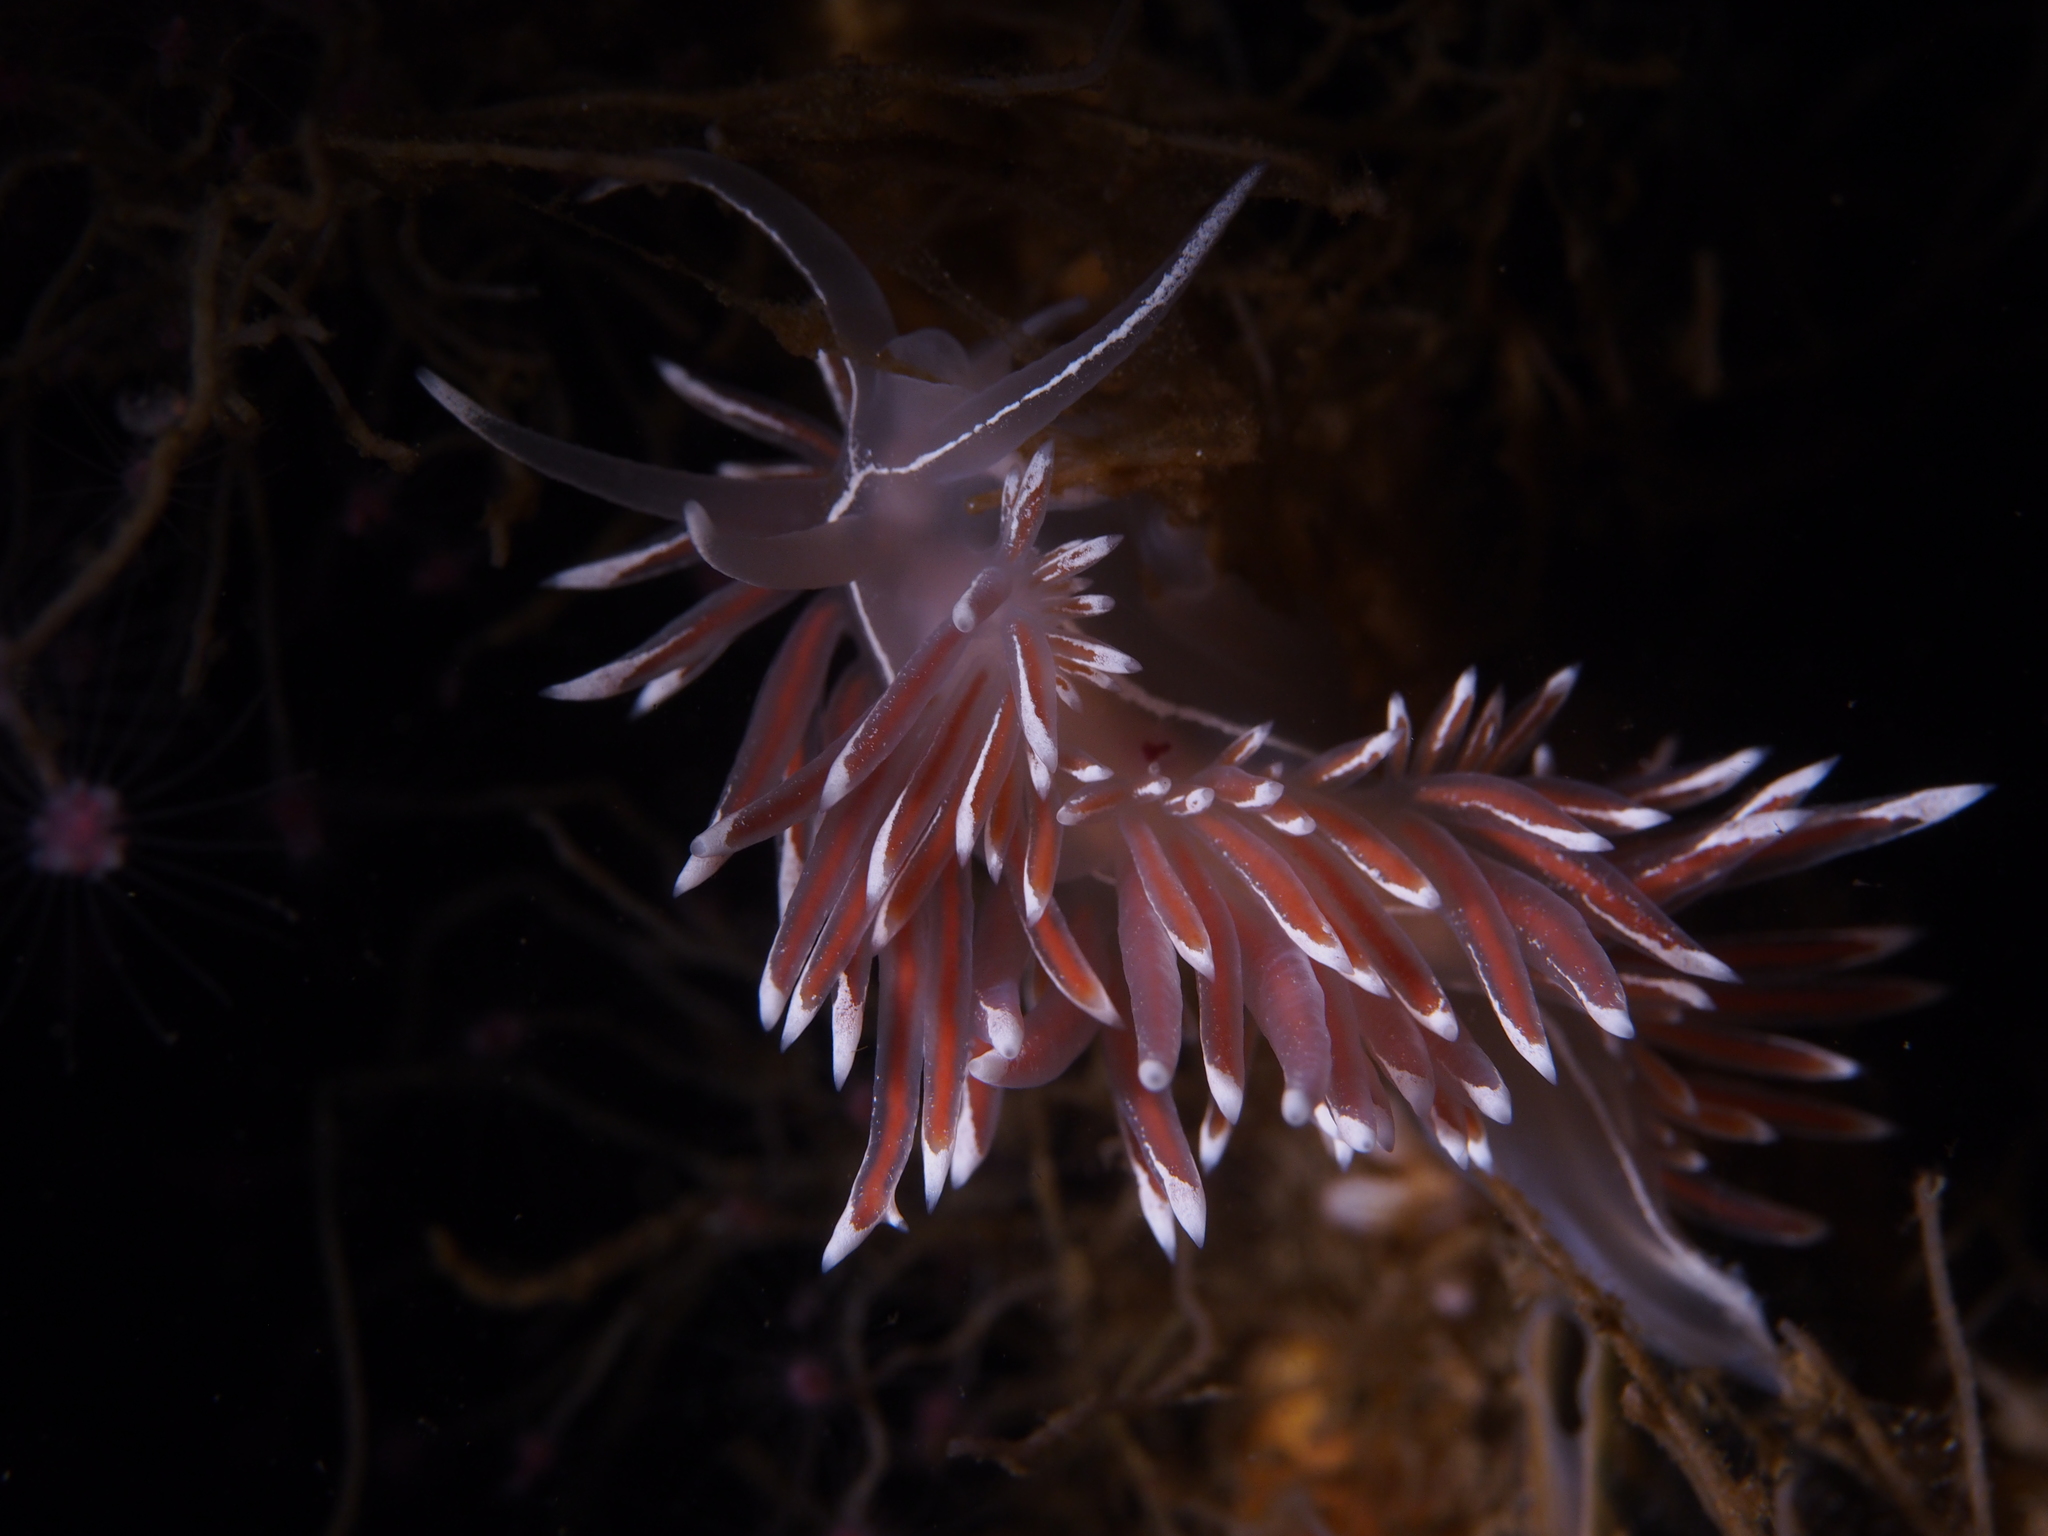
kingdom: Animalia
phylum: Mollusca
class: Gastropoda
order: Nudibranchia
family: Coryphellidae
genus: Coryphella
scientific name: Coryphella lineata
